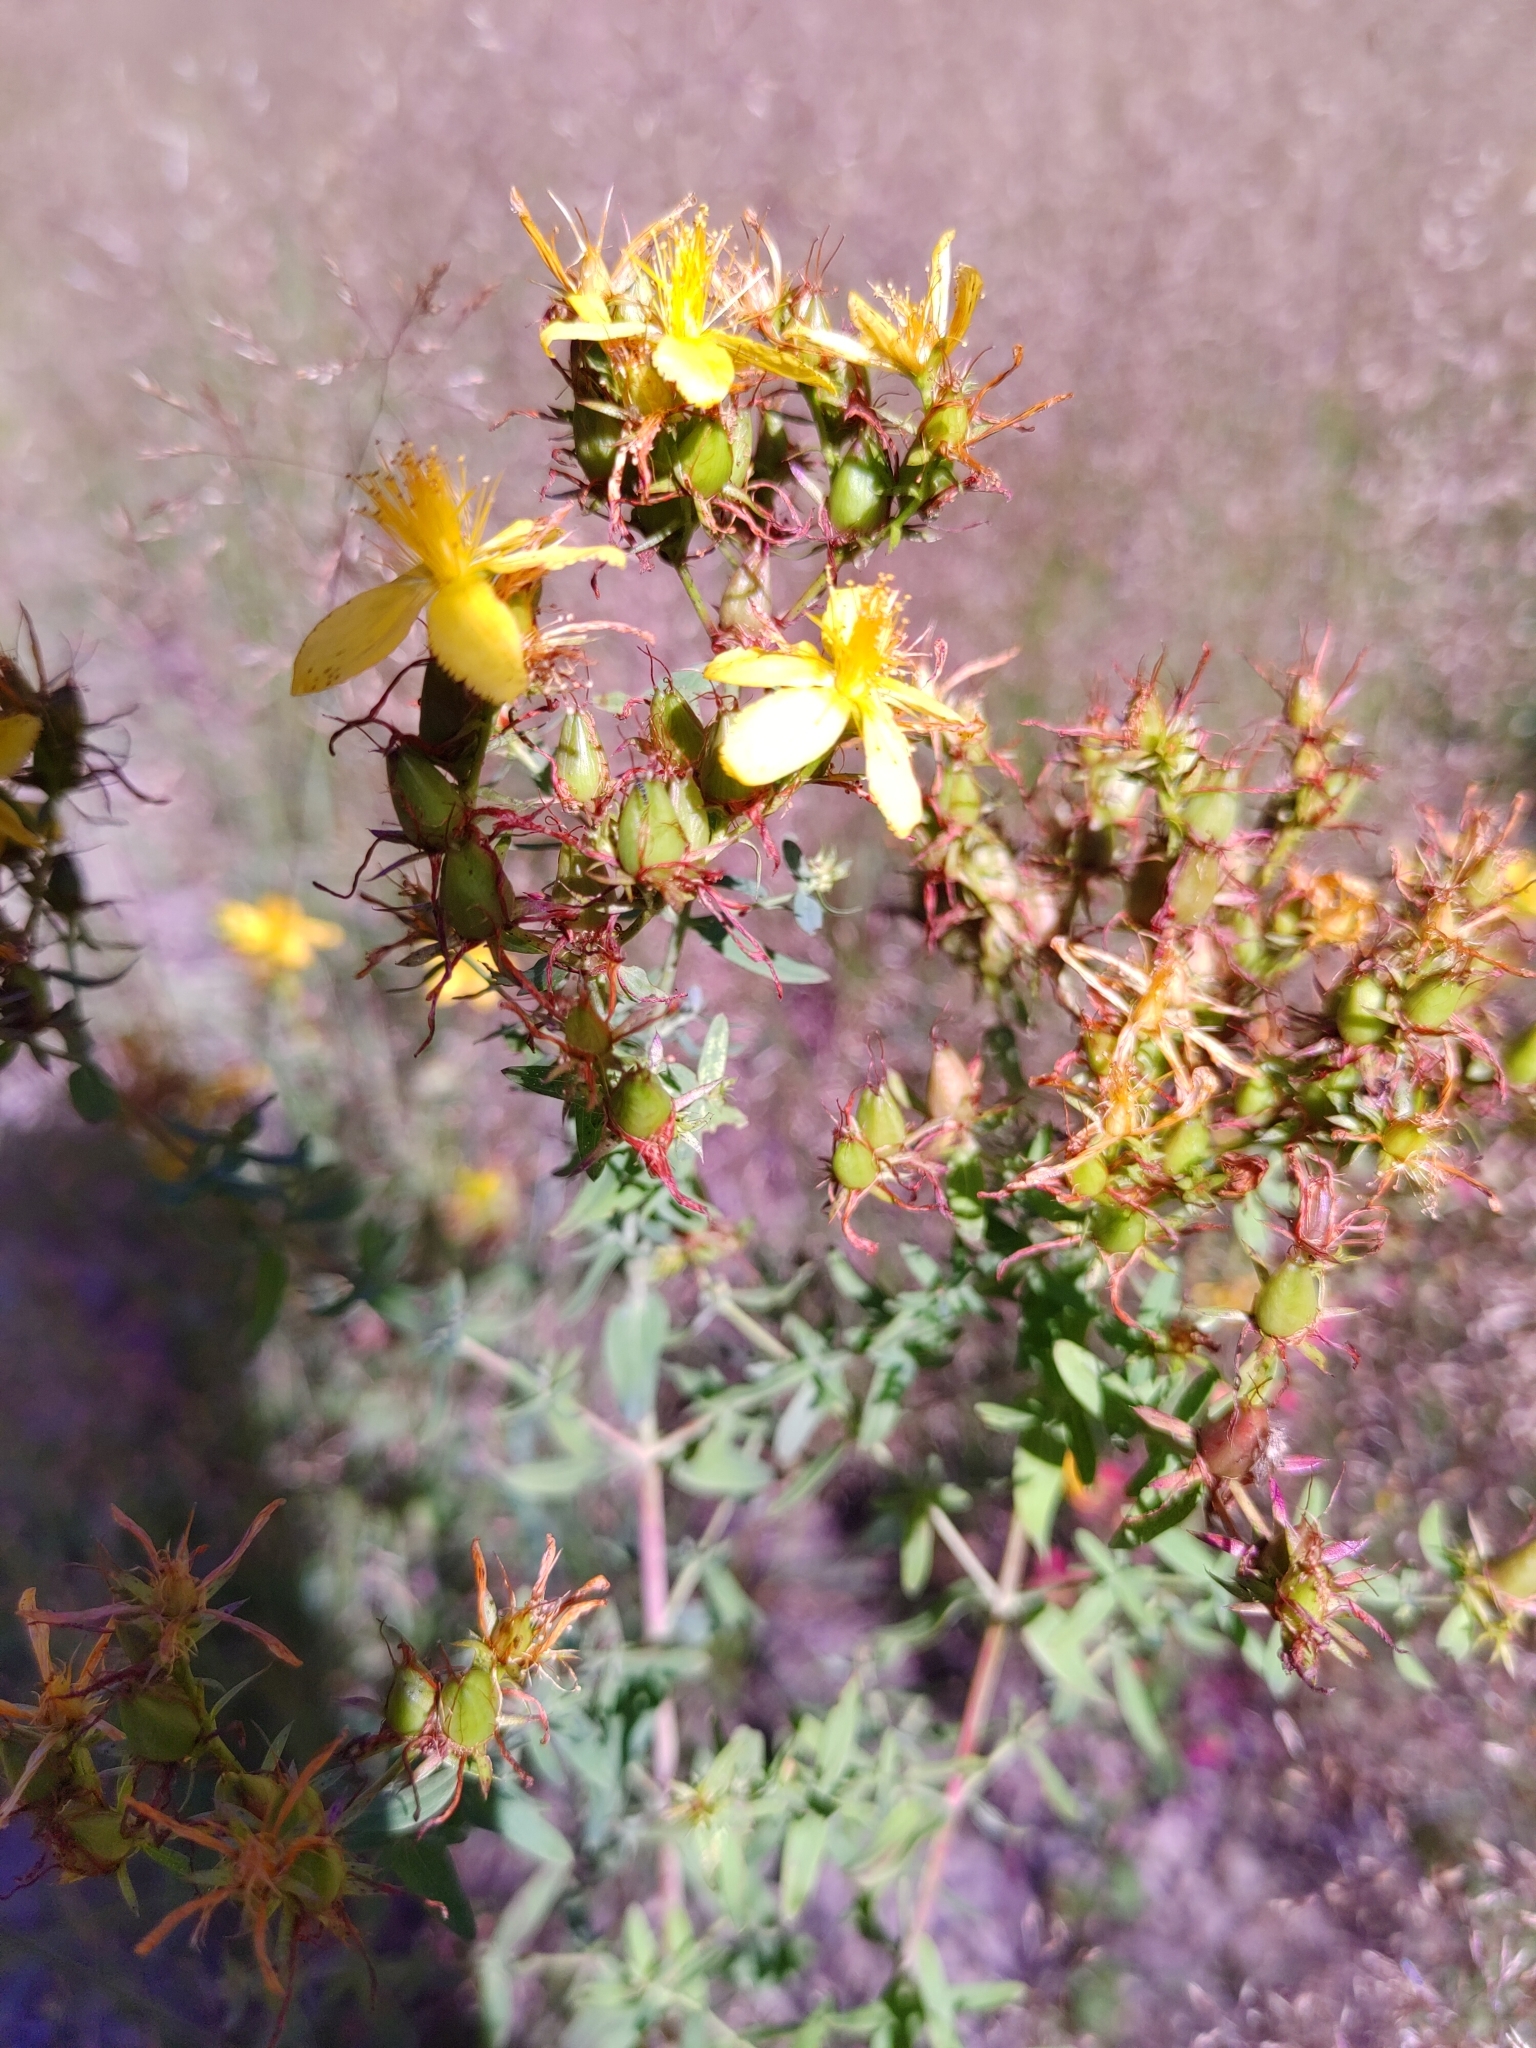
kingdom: Plantae
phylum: Tracheophyta
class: Magnoliopsida
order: Malpighiales
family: Hypericaceae
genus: Hypericum
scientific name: Hypericum perforatum
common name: Common st. johnswort
